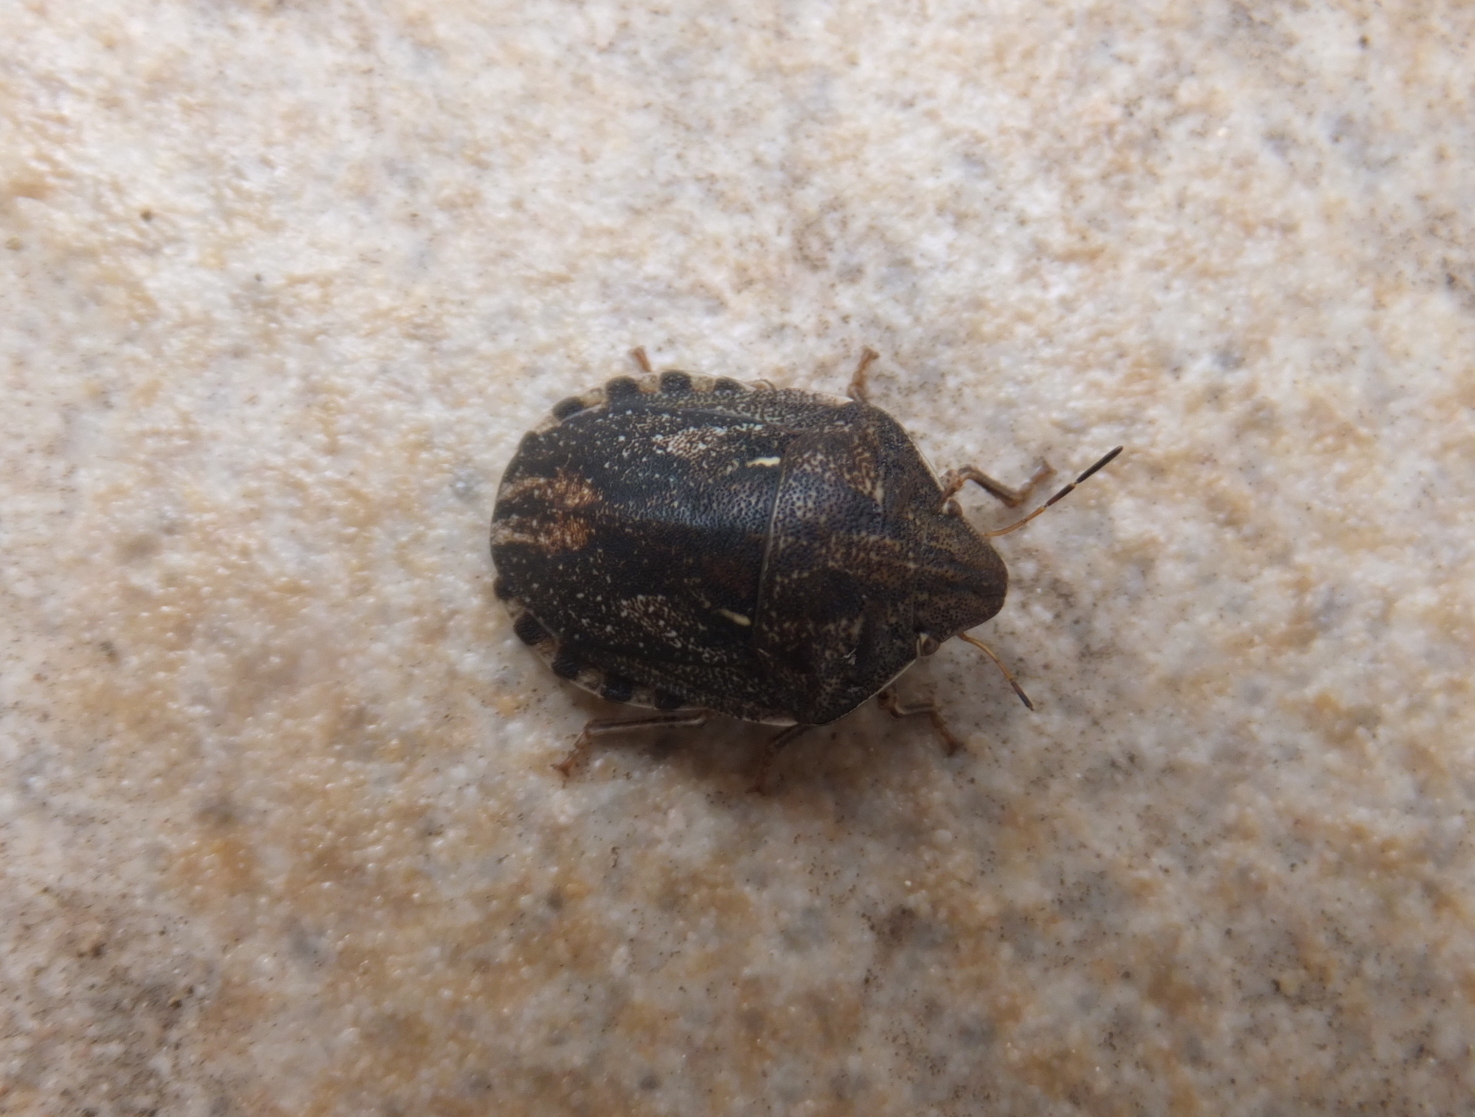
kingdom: Animalia
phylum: Arthropoda
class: Insecta
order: Hemiptera
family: Scutelleridae
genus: Eurygaster
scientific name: Eurygaster maura
